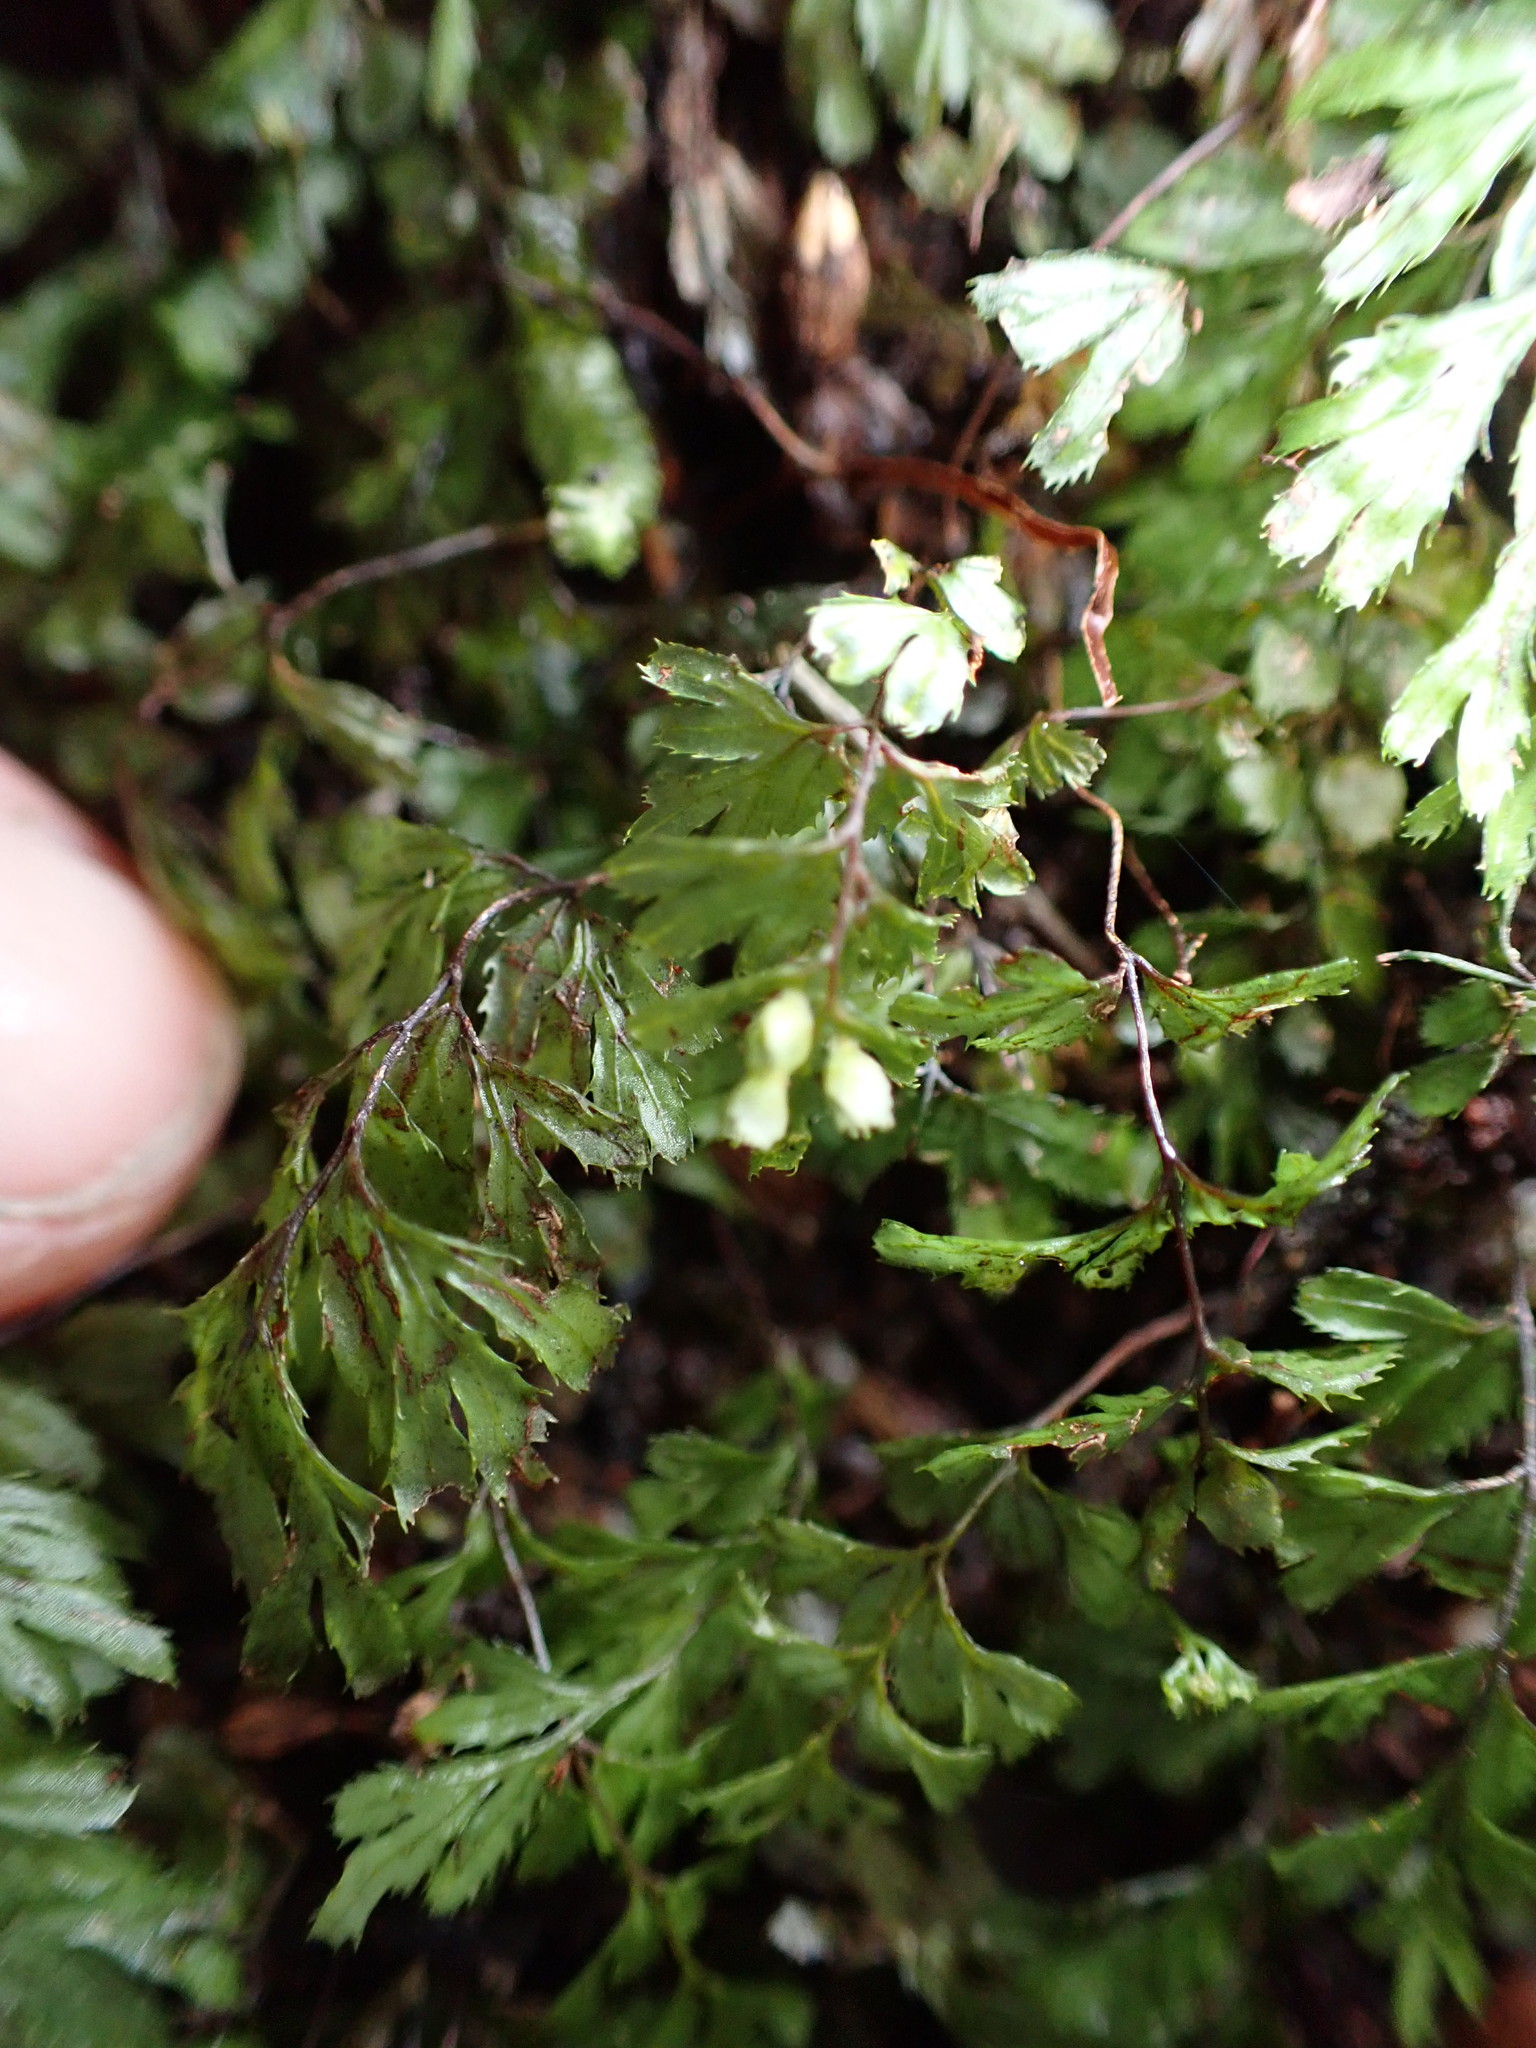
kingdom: Plantae
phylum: Tracheophyta
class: Polypodiopsida
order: Hymenophyllales
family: Hymenophyllaceae
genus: Hymenophyllum
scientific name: Hymenophyllum revolutum
